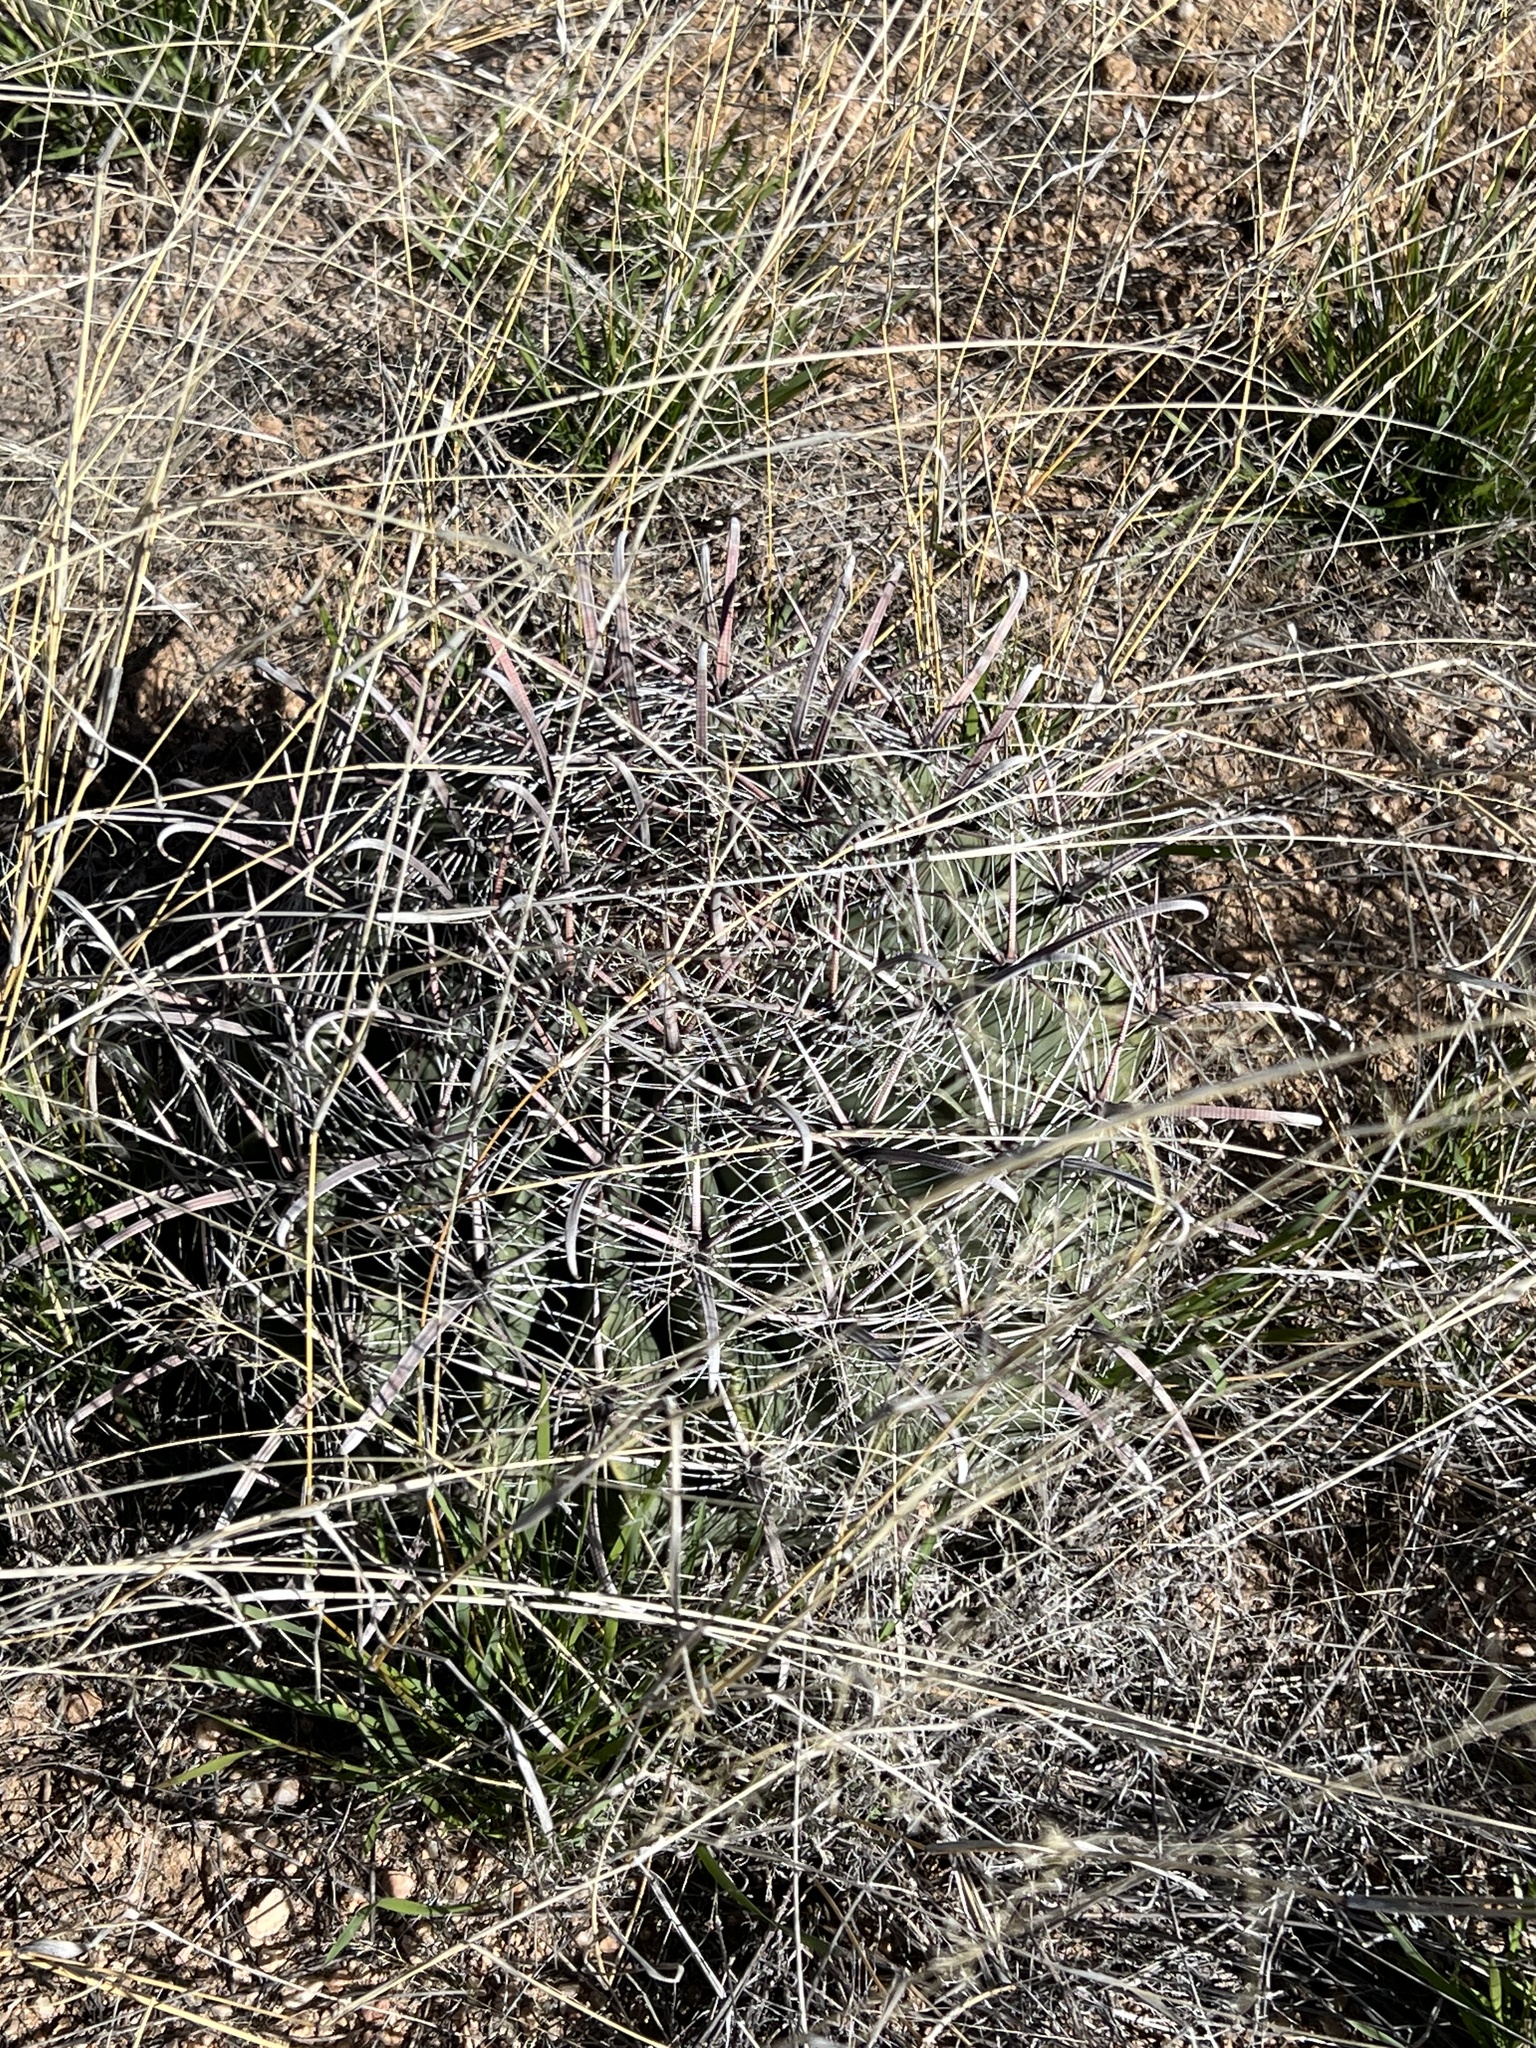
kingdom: Plantae
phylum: Tracheophyta
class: Magnoliopsida
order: Caryophyllales
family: Cactaceae
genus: Ferocactus
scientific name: Ferocactus wislizeni
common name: Candy barrel cactus
